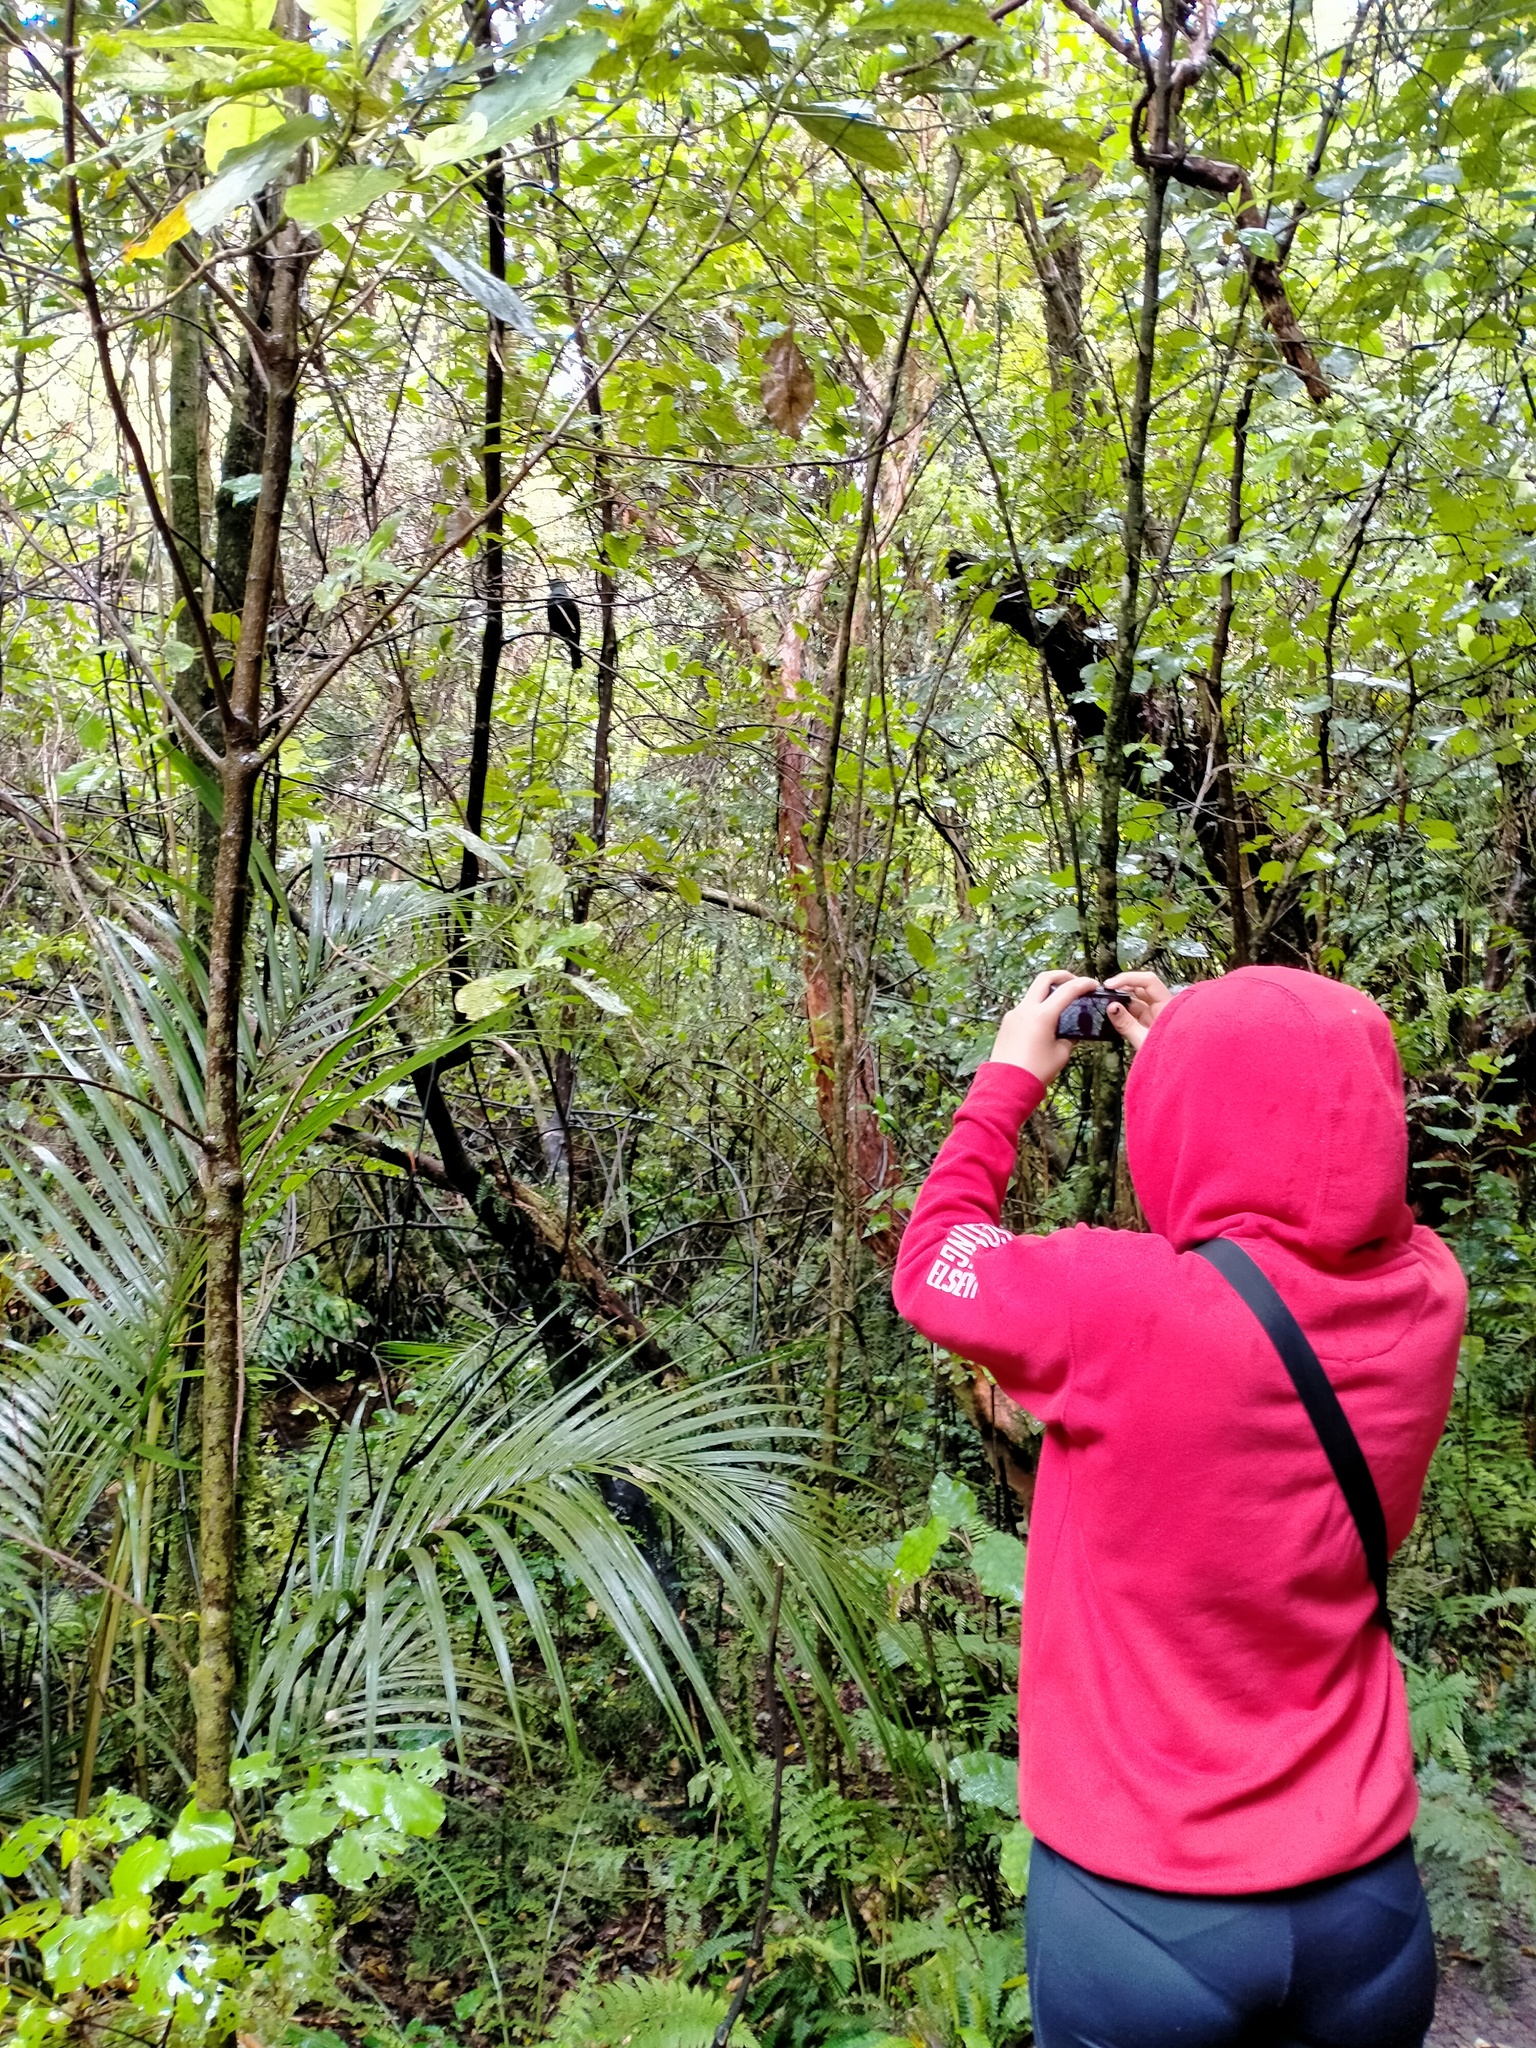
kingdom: Animalia
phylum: Chordata
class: Aves
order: Passeriformes
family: Meliphagidae
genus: Prosthemadera
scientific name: Prosthemadera novaeseelandiae
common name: Tui
